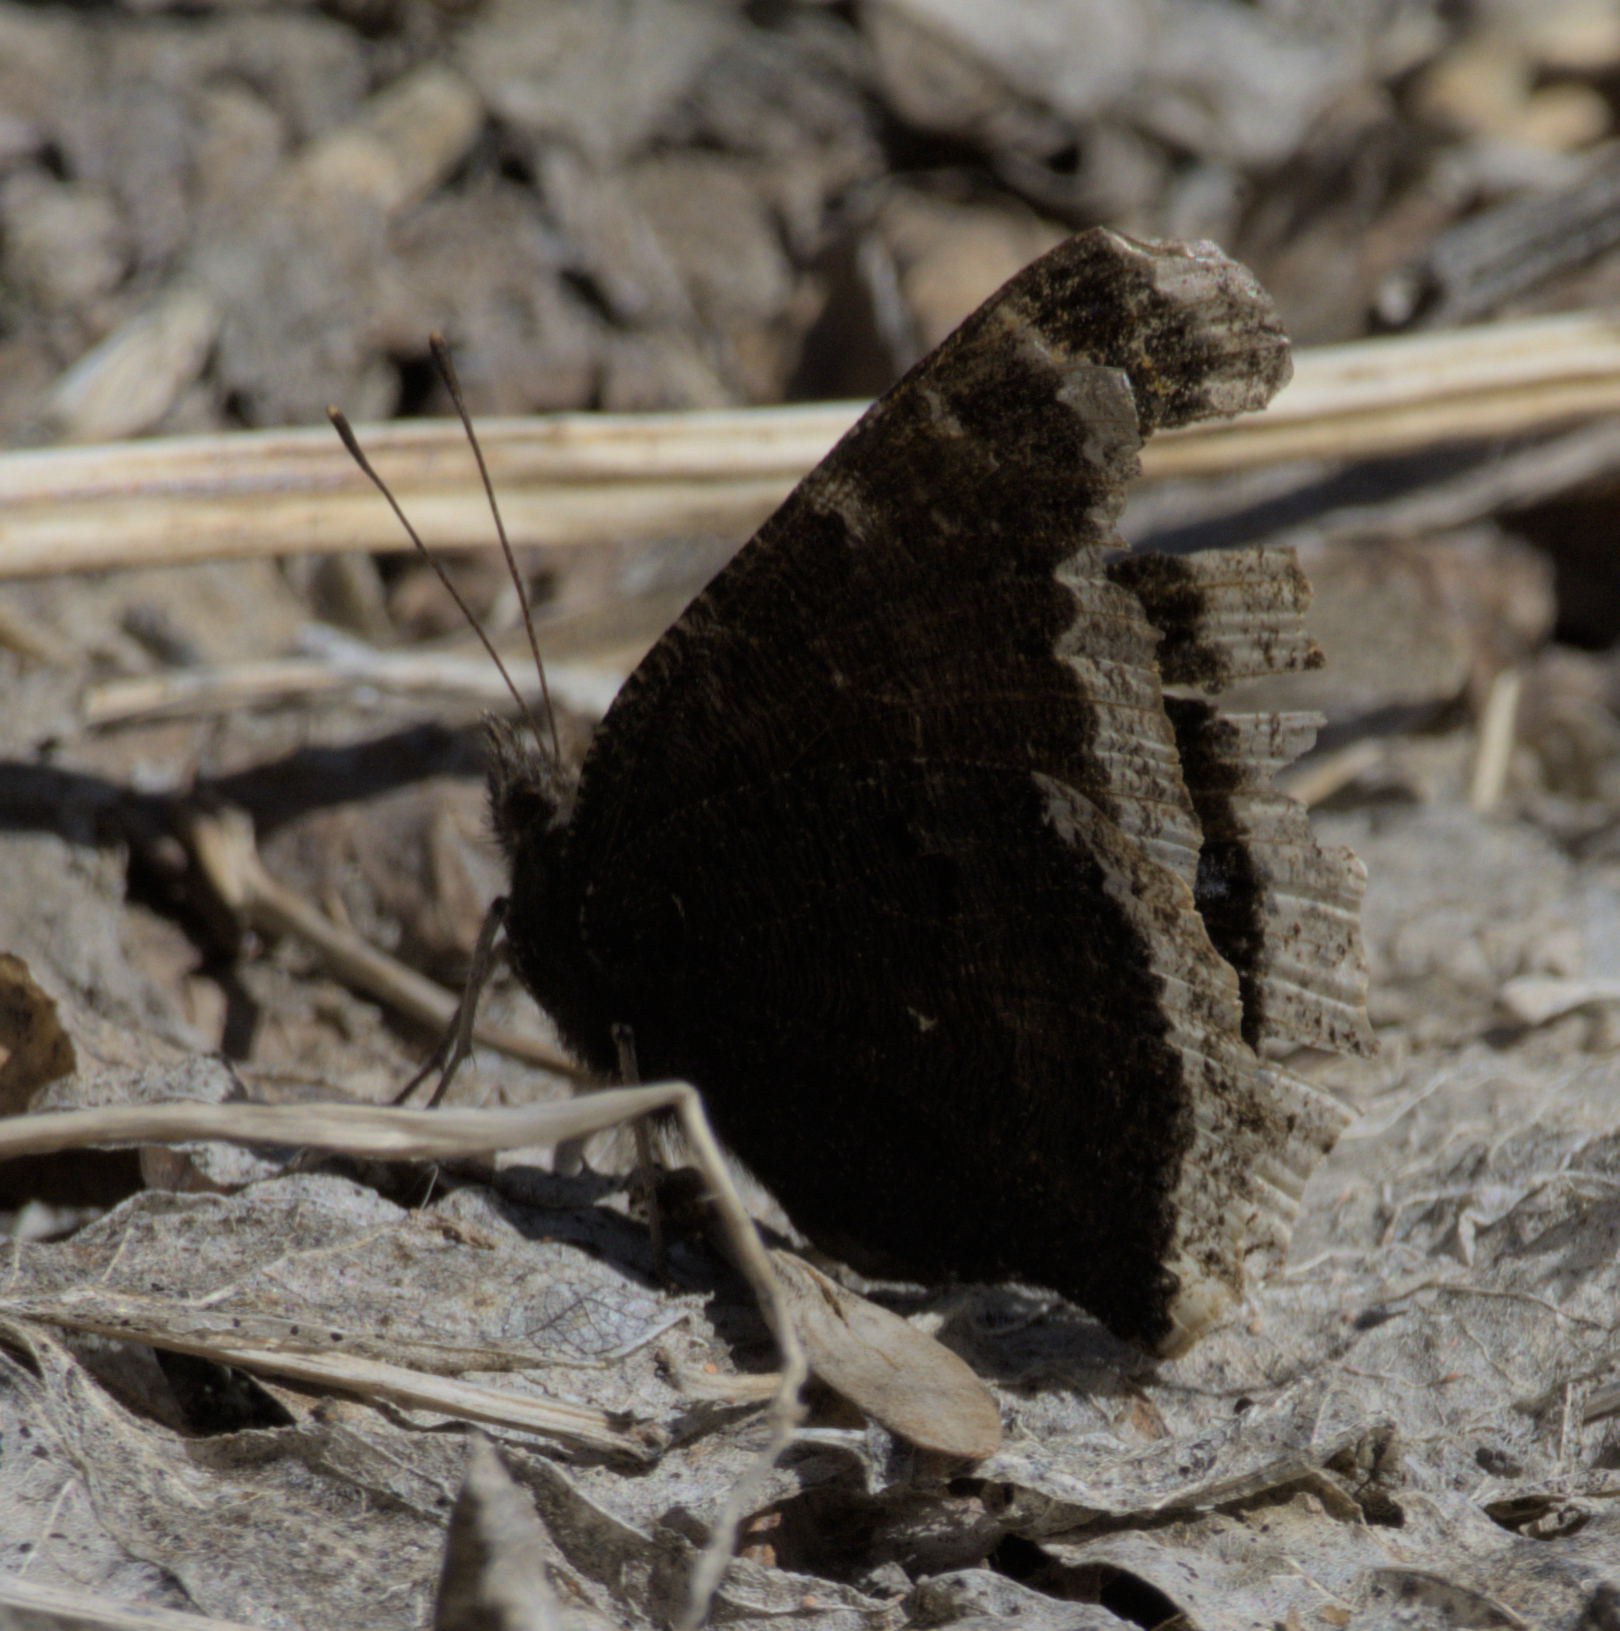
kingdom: Animalia
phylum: Arthropoda
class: Insecta
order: Lepidoptera
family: Nymphalidae
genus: Nymphalis
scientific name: Nymphalis antiopa
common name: Camberwell beauty
